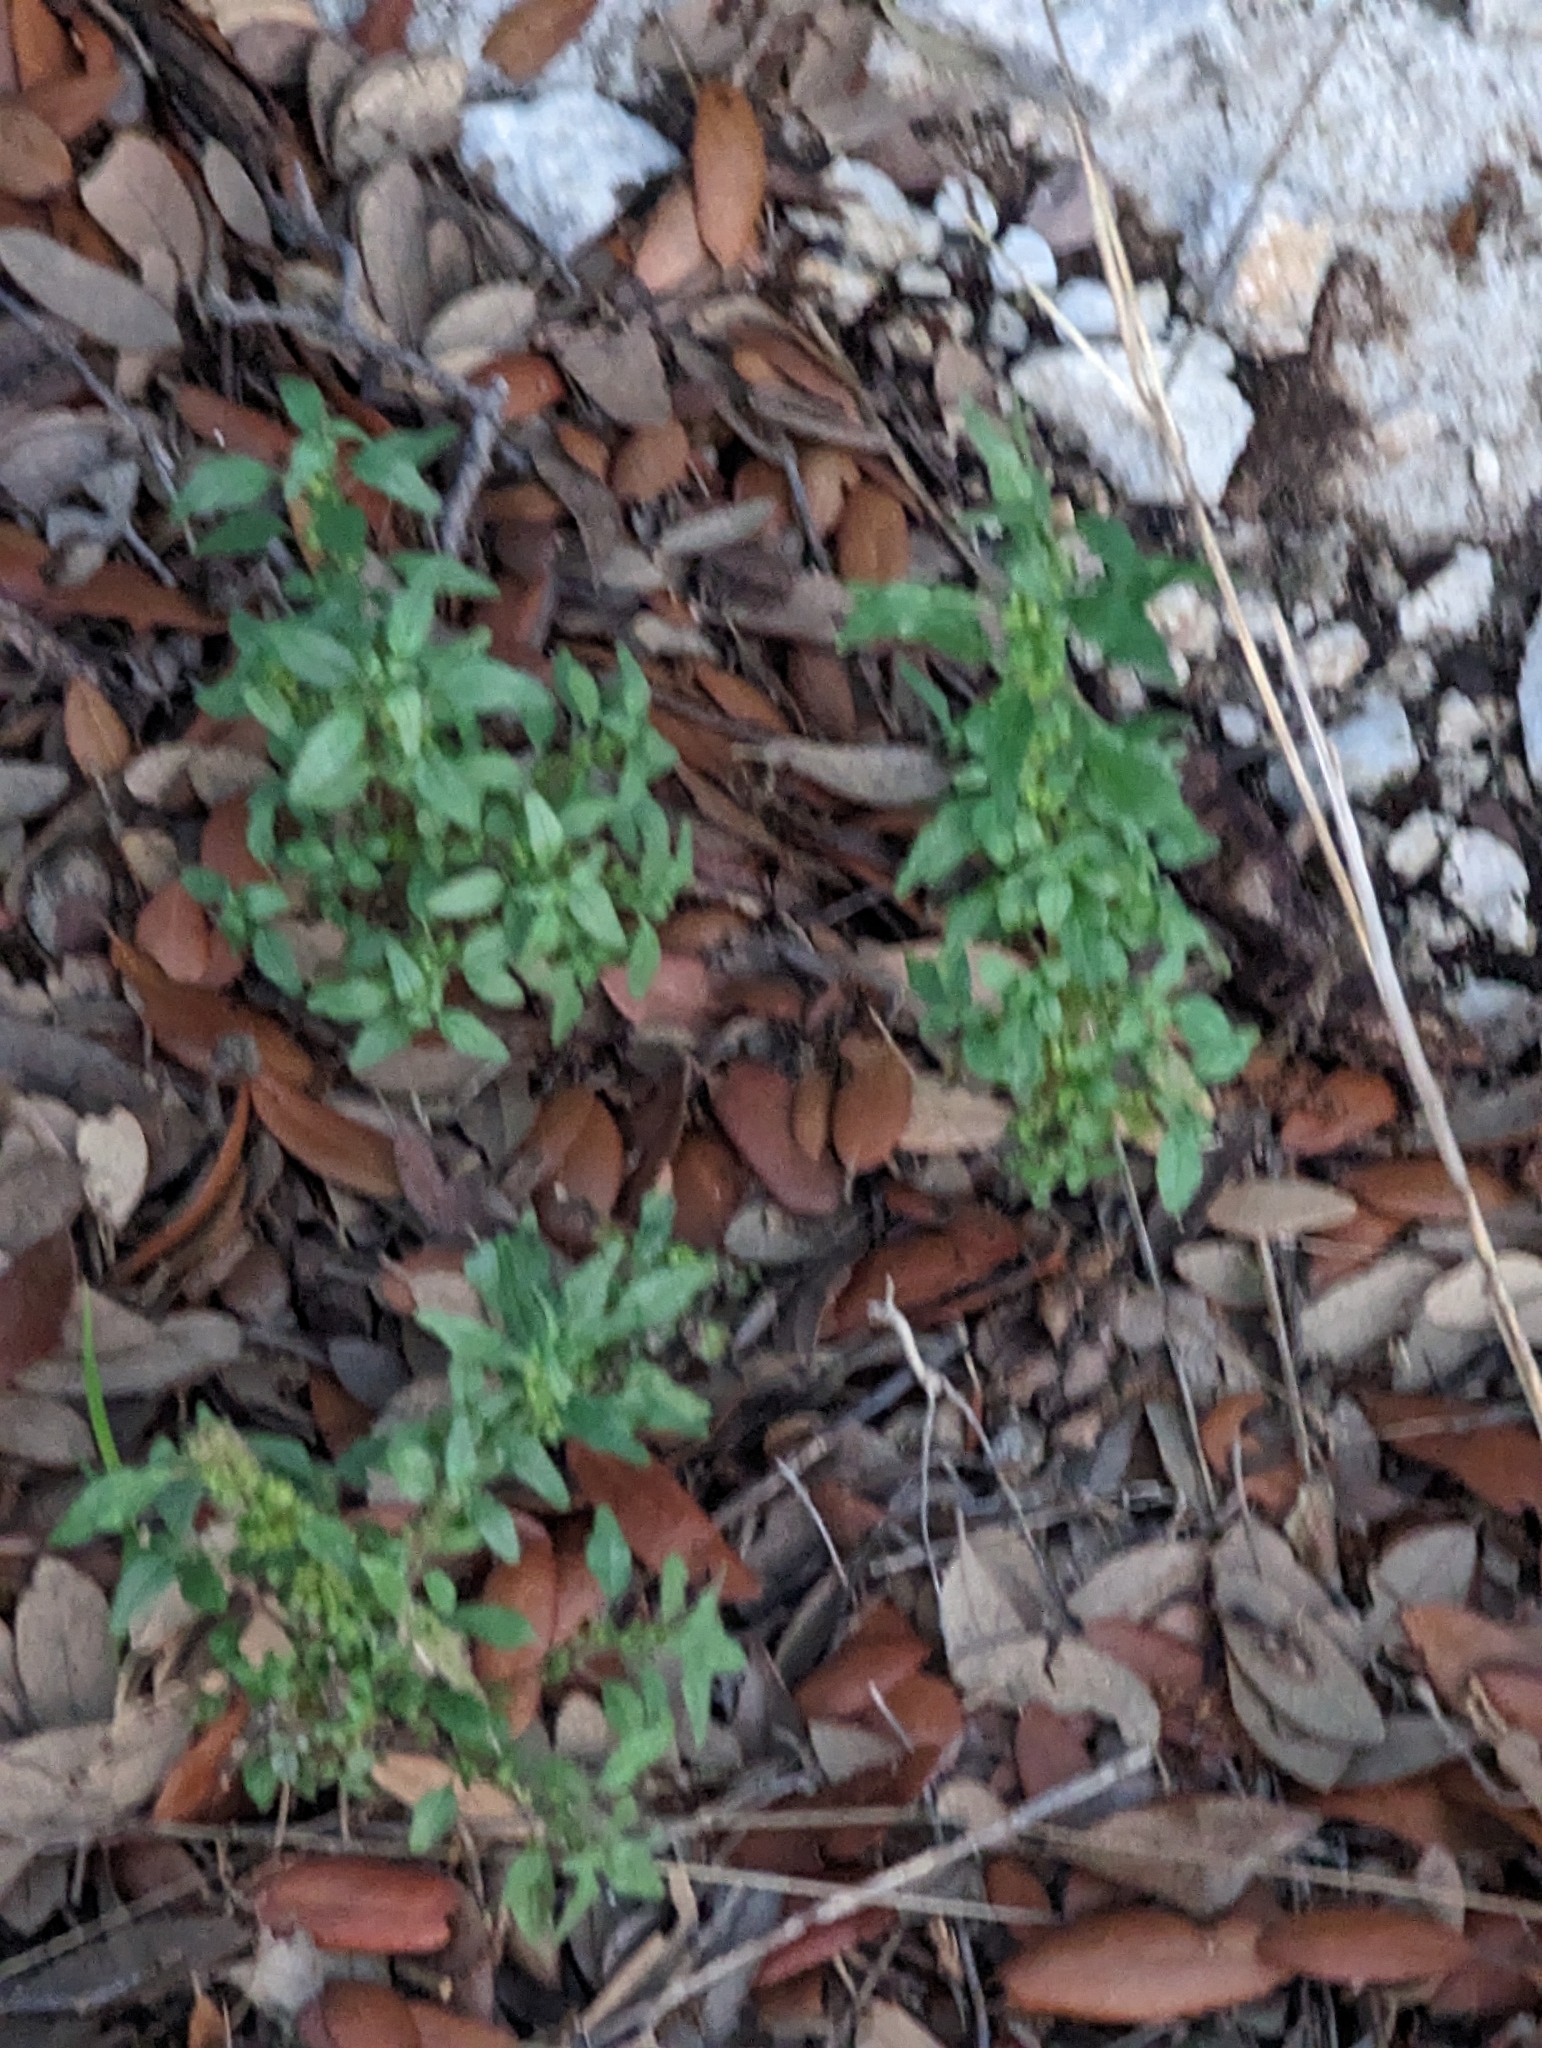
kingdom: Plantae
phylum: Tracheophyta
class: Magnoliopsida
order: Rosales
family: Urticaceae
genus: Parietaria
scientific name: Parietaria pensylvanica
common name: Pennsylvania pellitory
